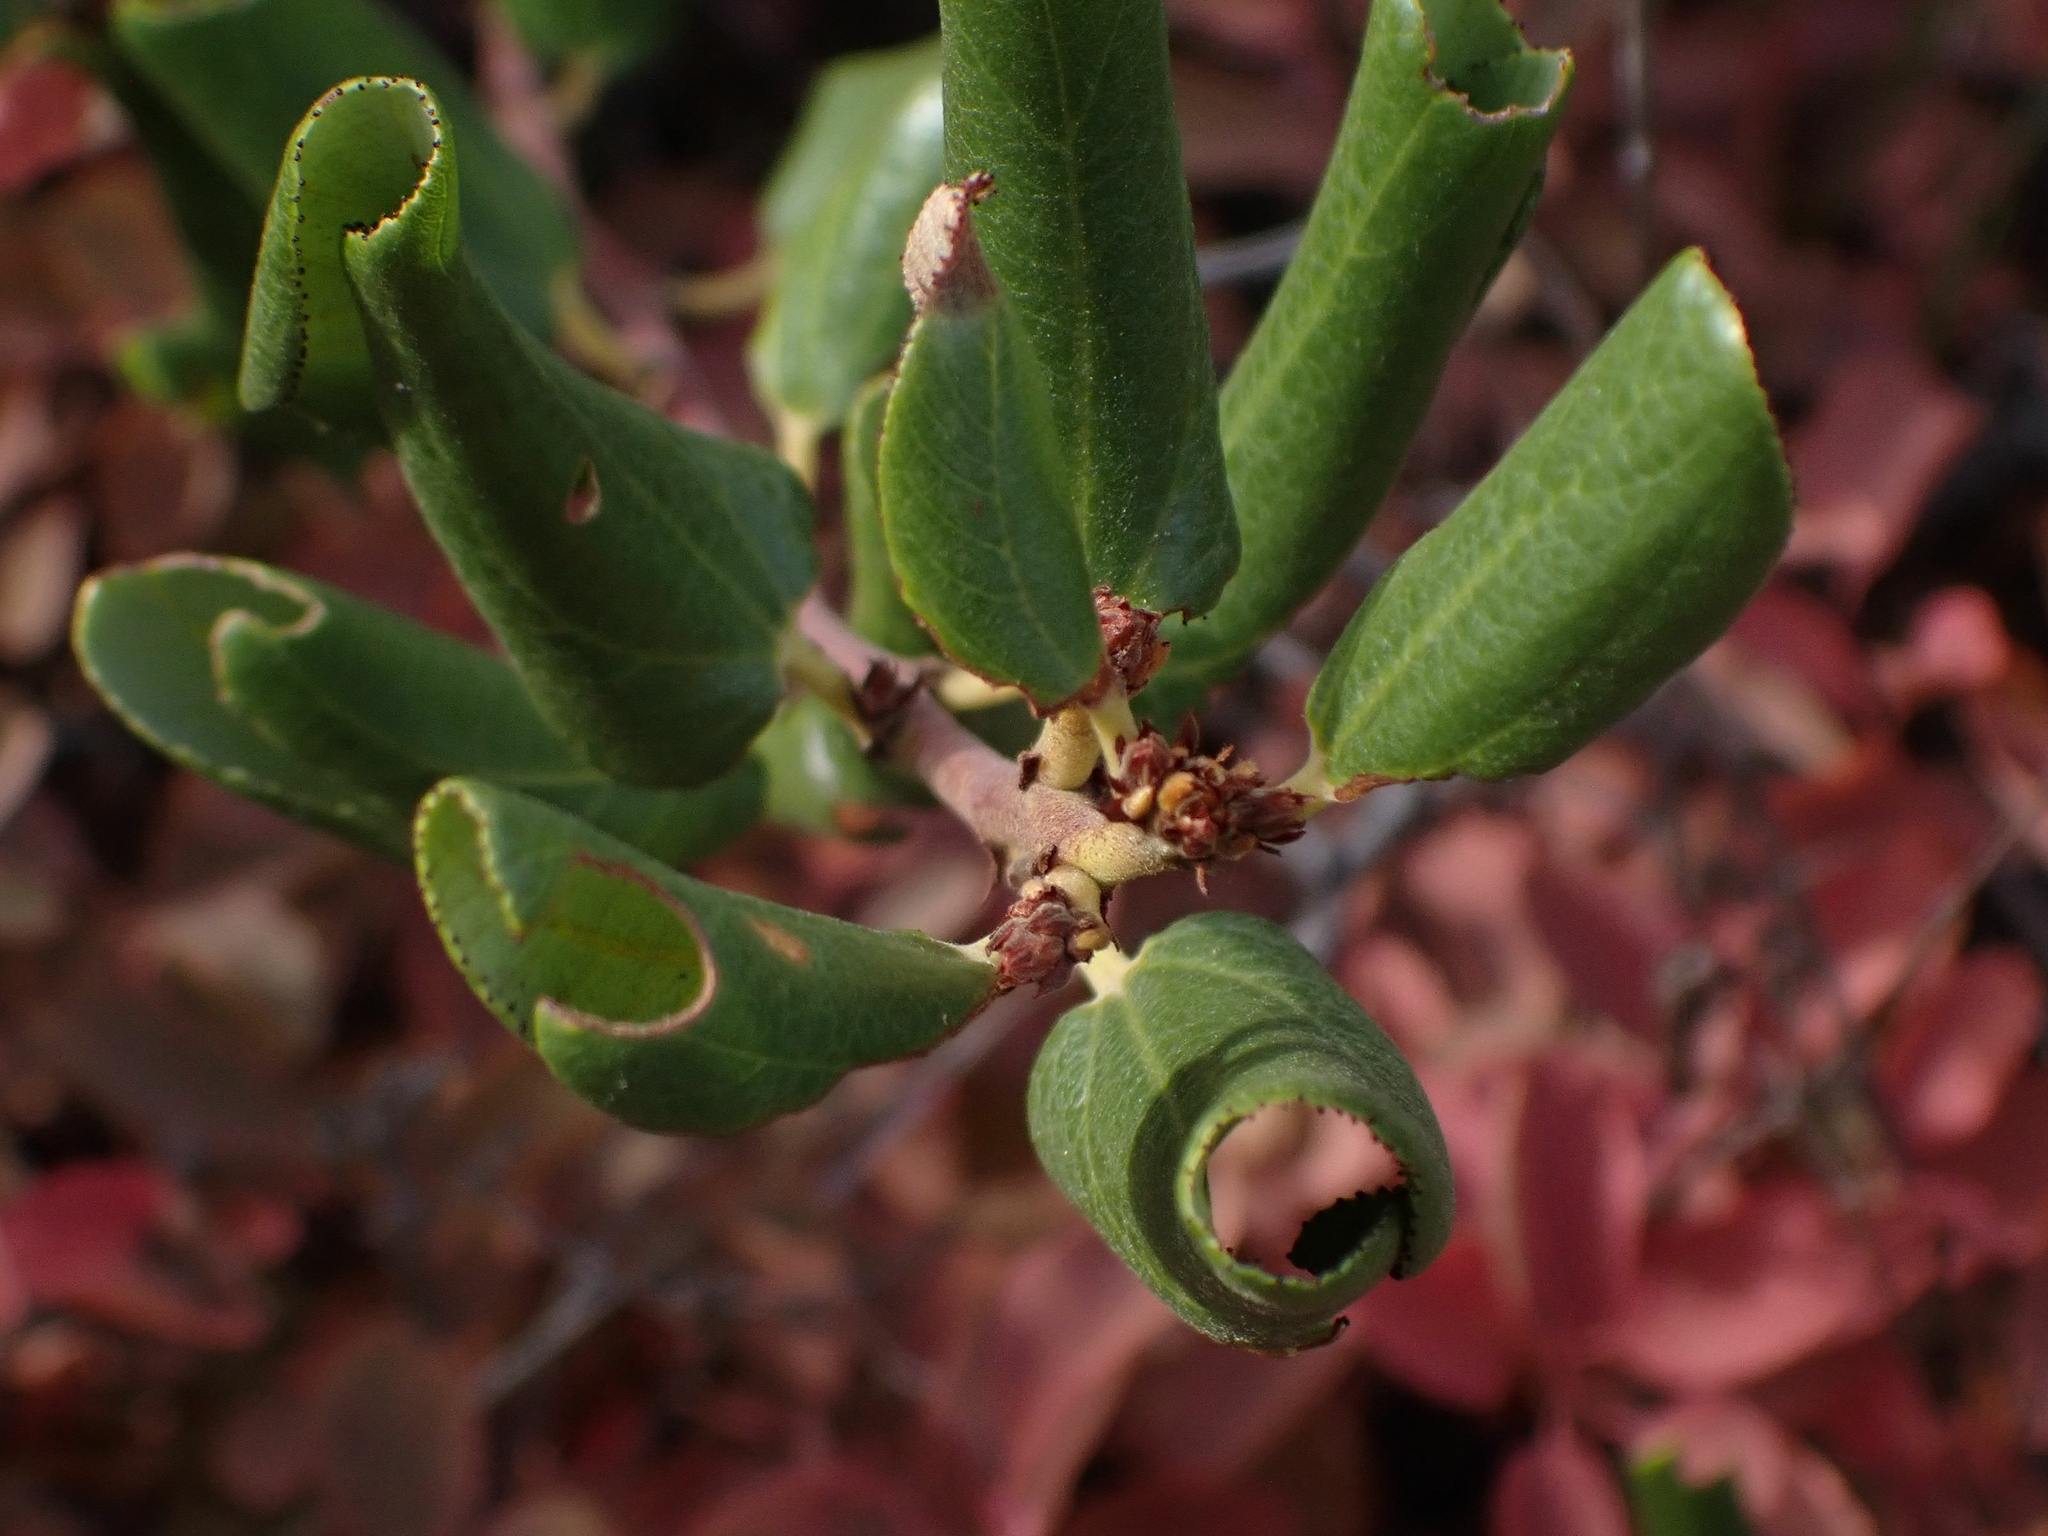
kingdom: Plantae
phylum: Tracheophyta
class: Magnoliopsida
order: Rosales
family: Rhamnaceae
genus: Ceanothus
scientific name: Ceanothus velutinus
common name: Snowbrush
